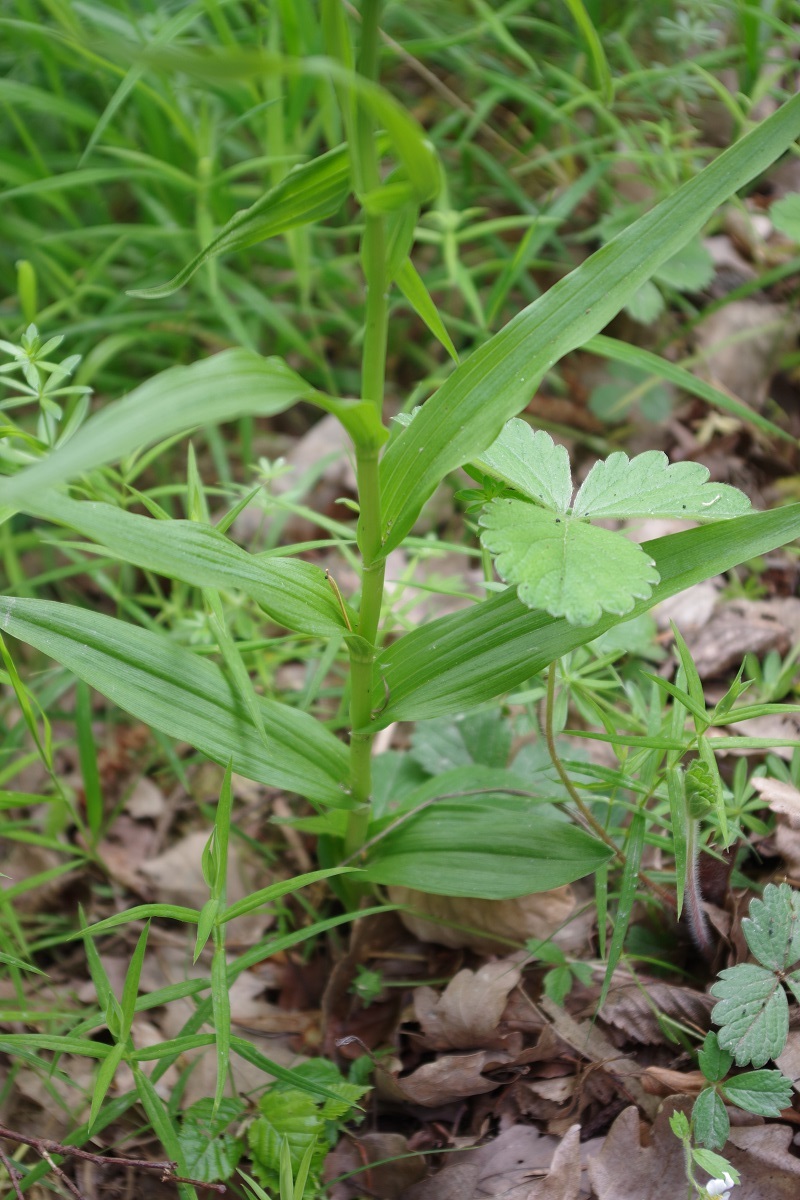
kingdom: Plantae
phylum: Tracheophyta
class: Liliopsida
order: Asparagales
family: Orchidaceae
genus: Cephalanthera
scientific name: Cephalanthera longifolia
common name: Narrow-leaved helleborine
